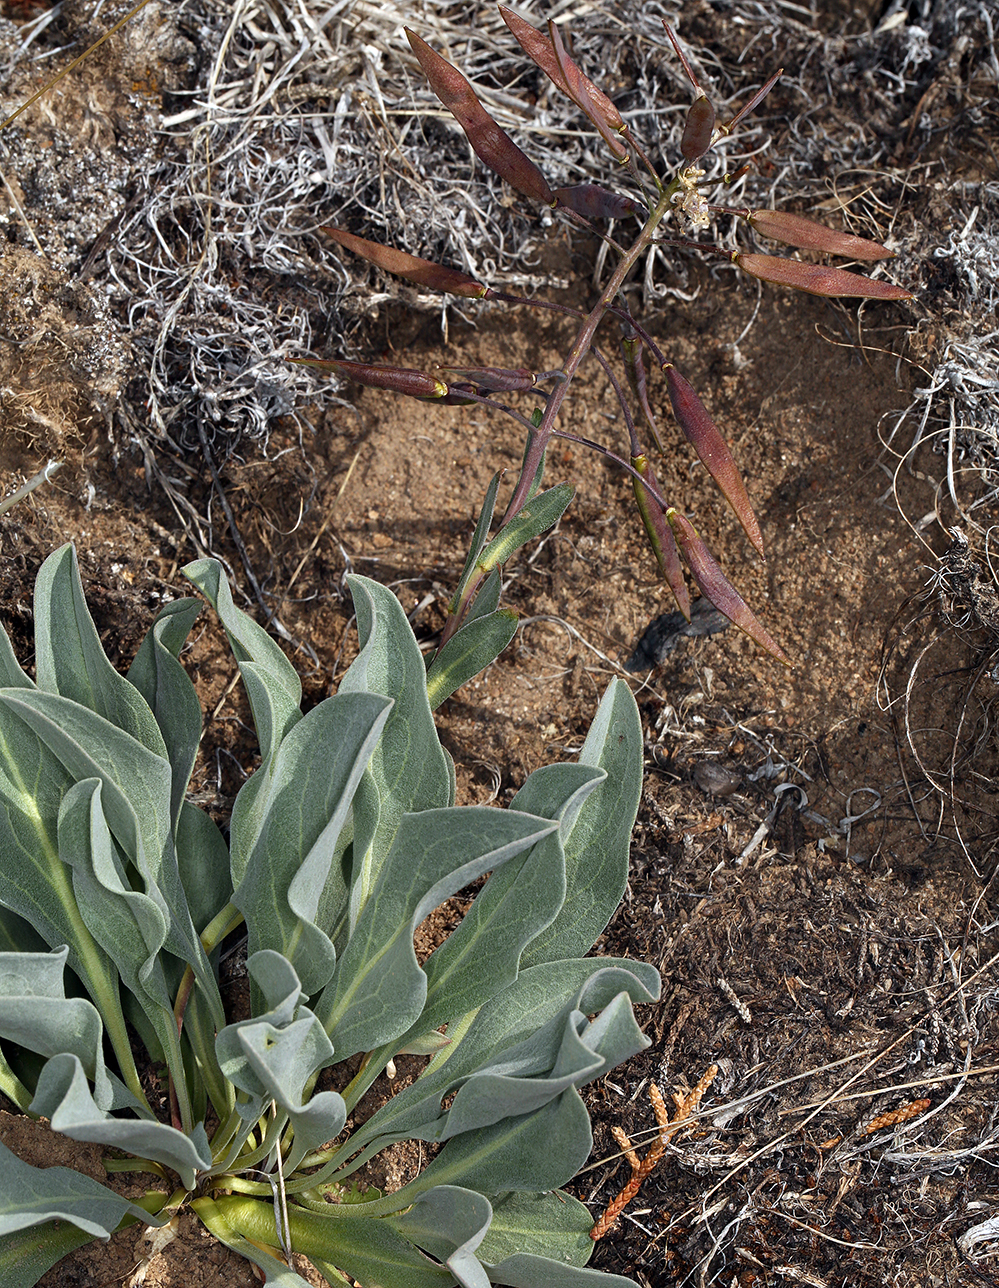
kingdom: Plantae
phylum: Tracheophyta
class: Magnoliopsida
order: Brassicales
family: Brassicaceae
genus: Phoenicaulis
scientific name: Phoenicaulis cheiranthoides
